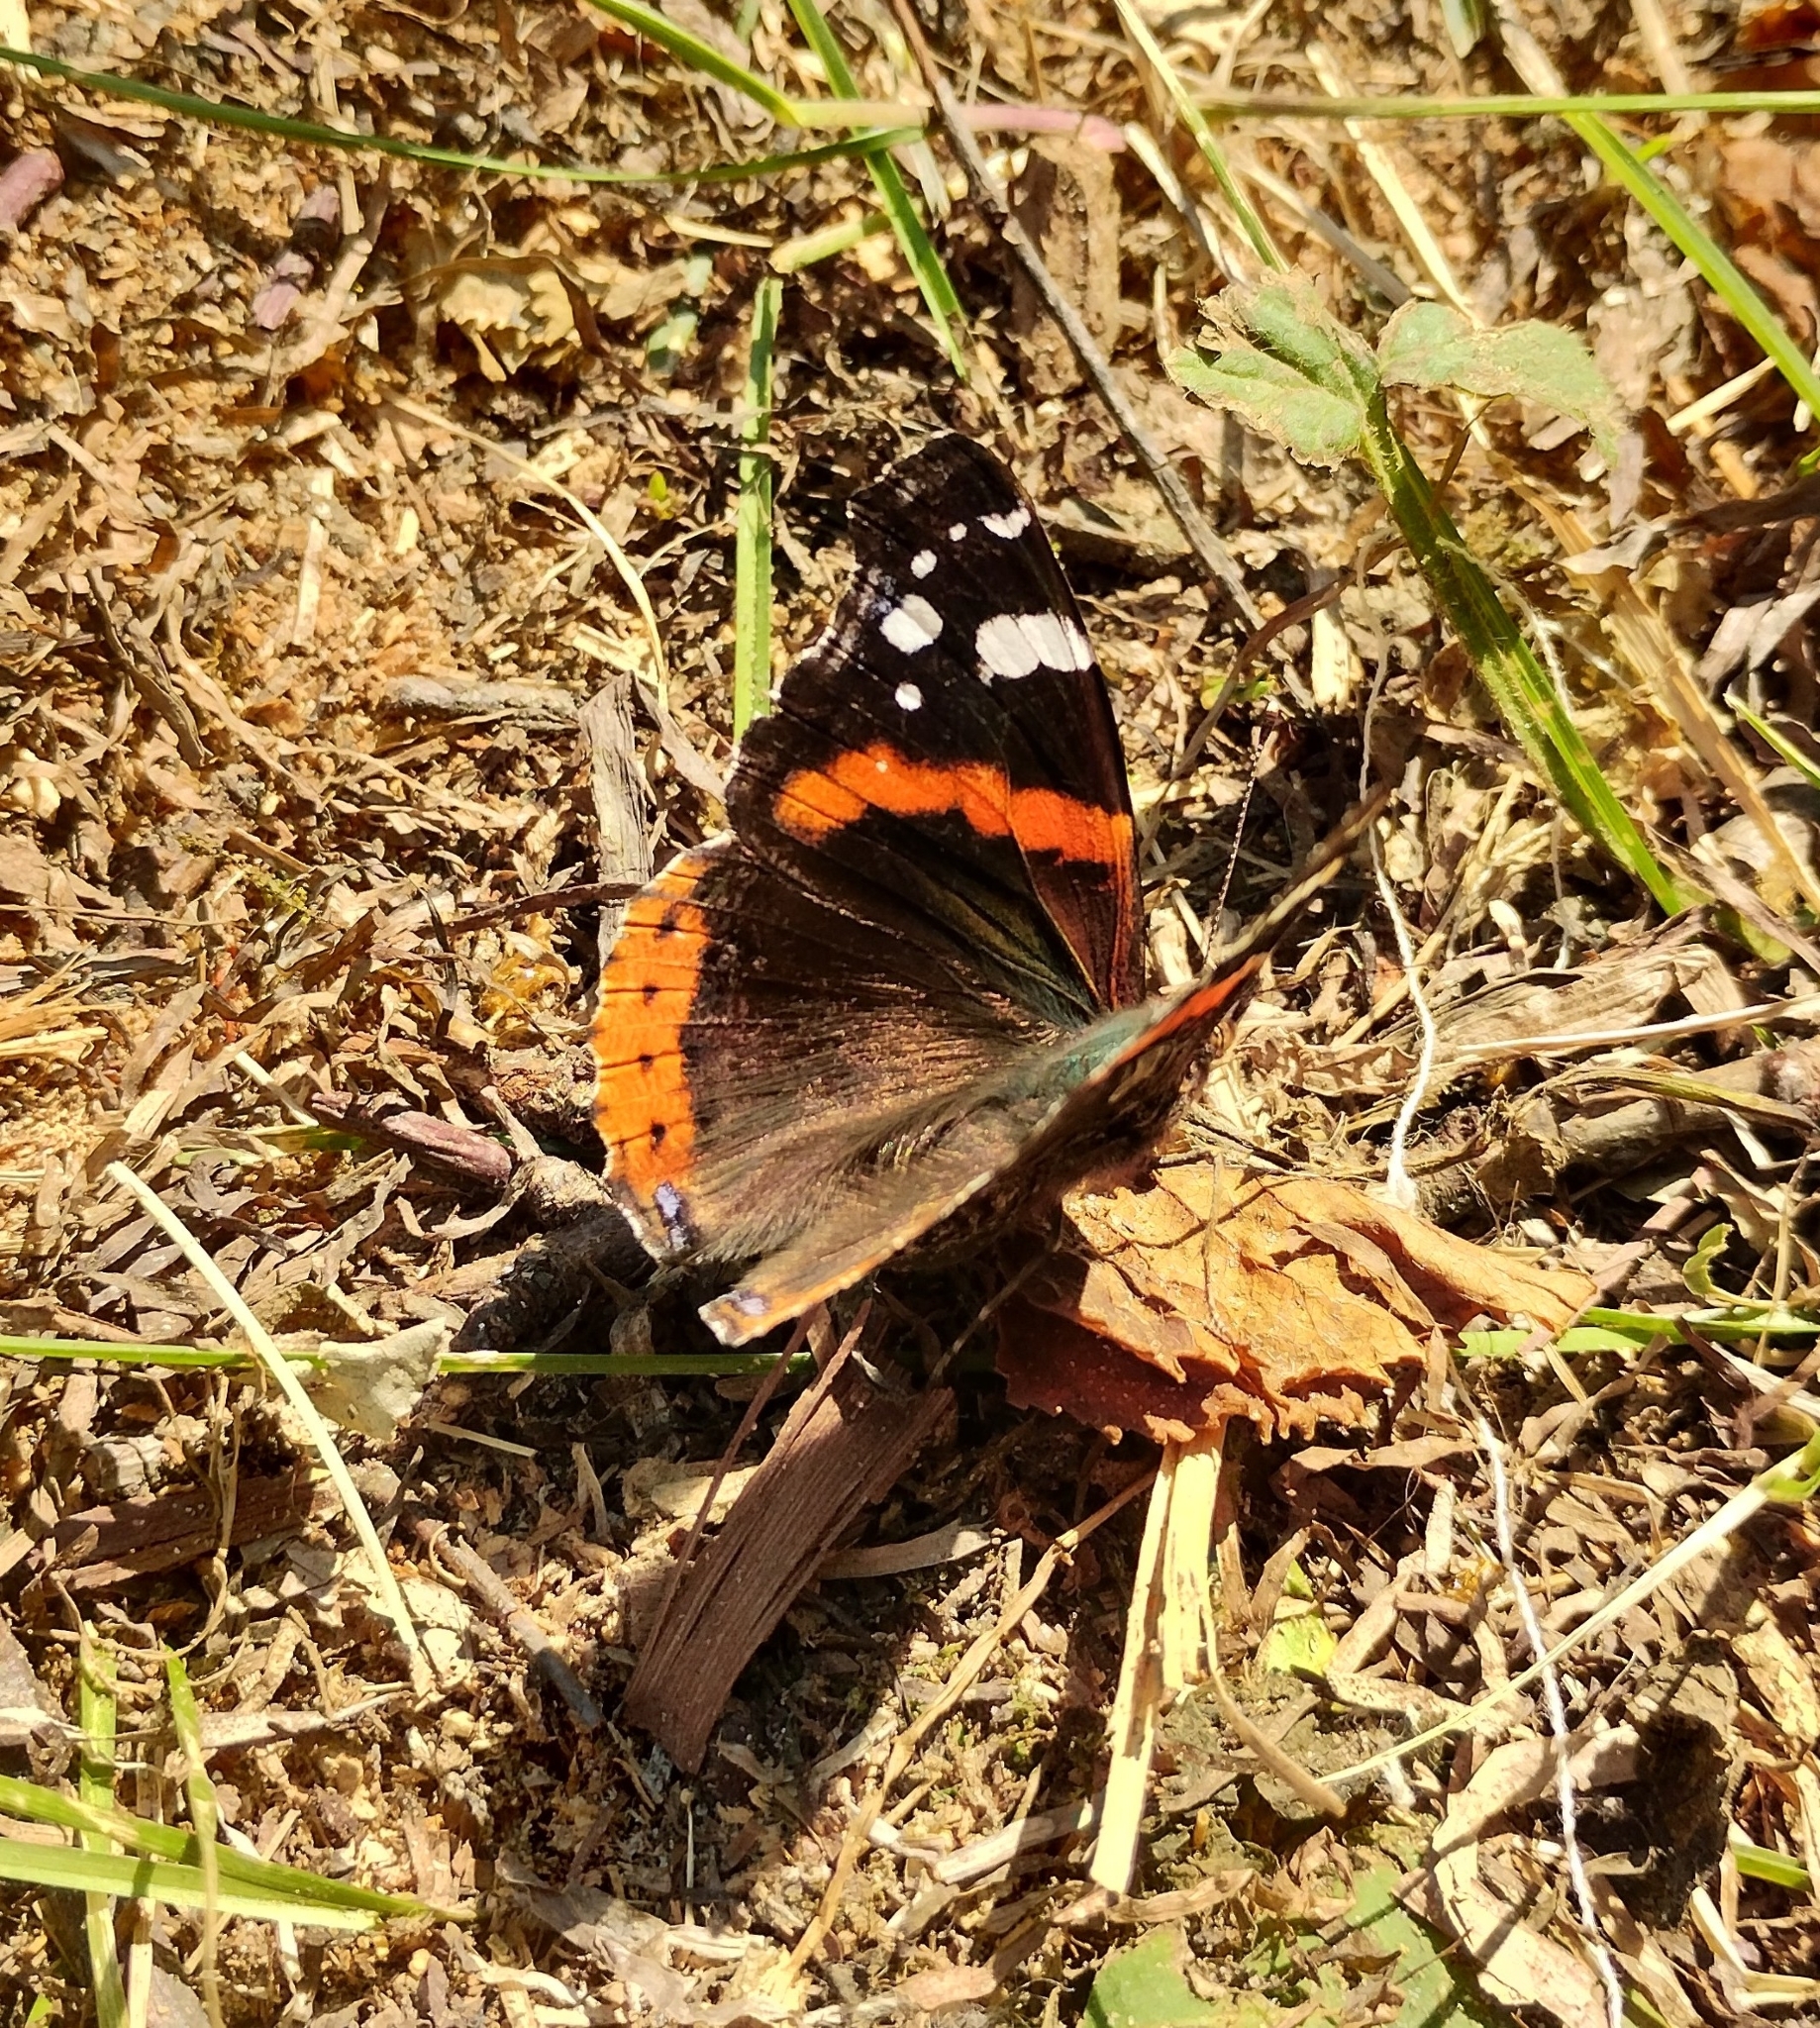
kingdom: Animalia
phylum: Arthropoda
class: Insecta
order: Lepidoptera
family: Nymphalidae
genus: Vanessa
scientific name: Vanessa atalanta
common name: Red admiral
